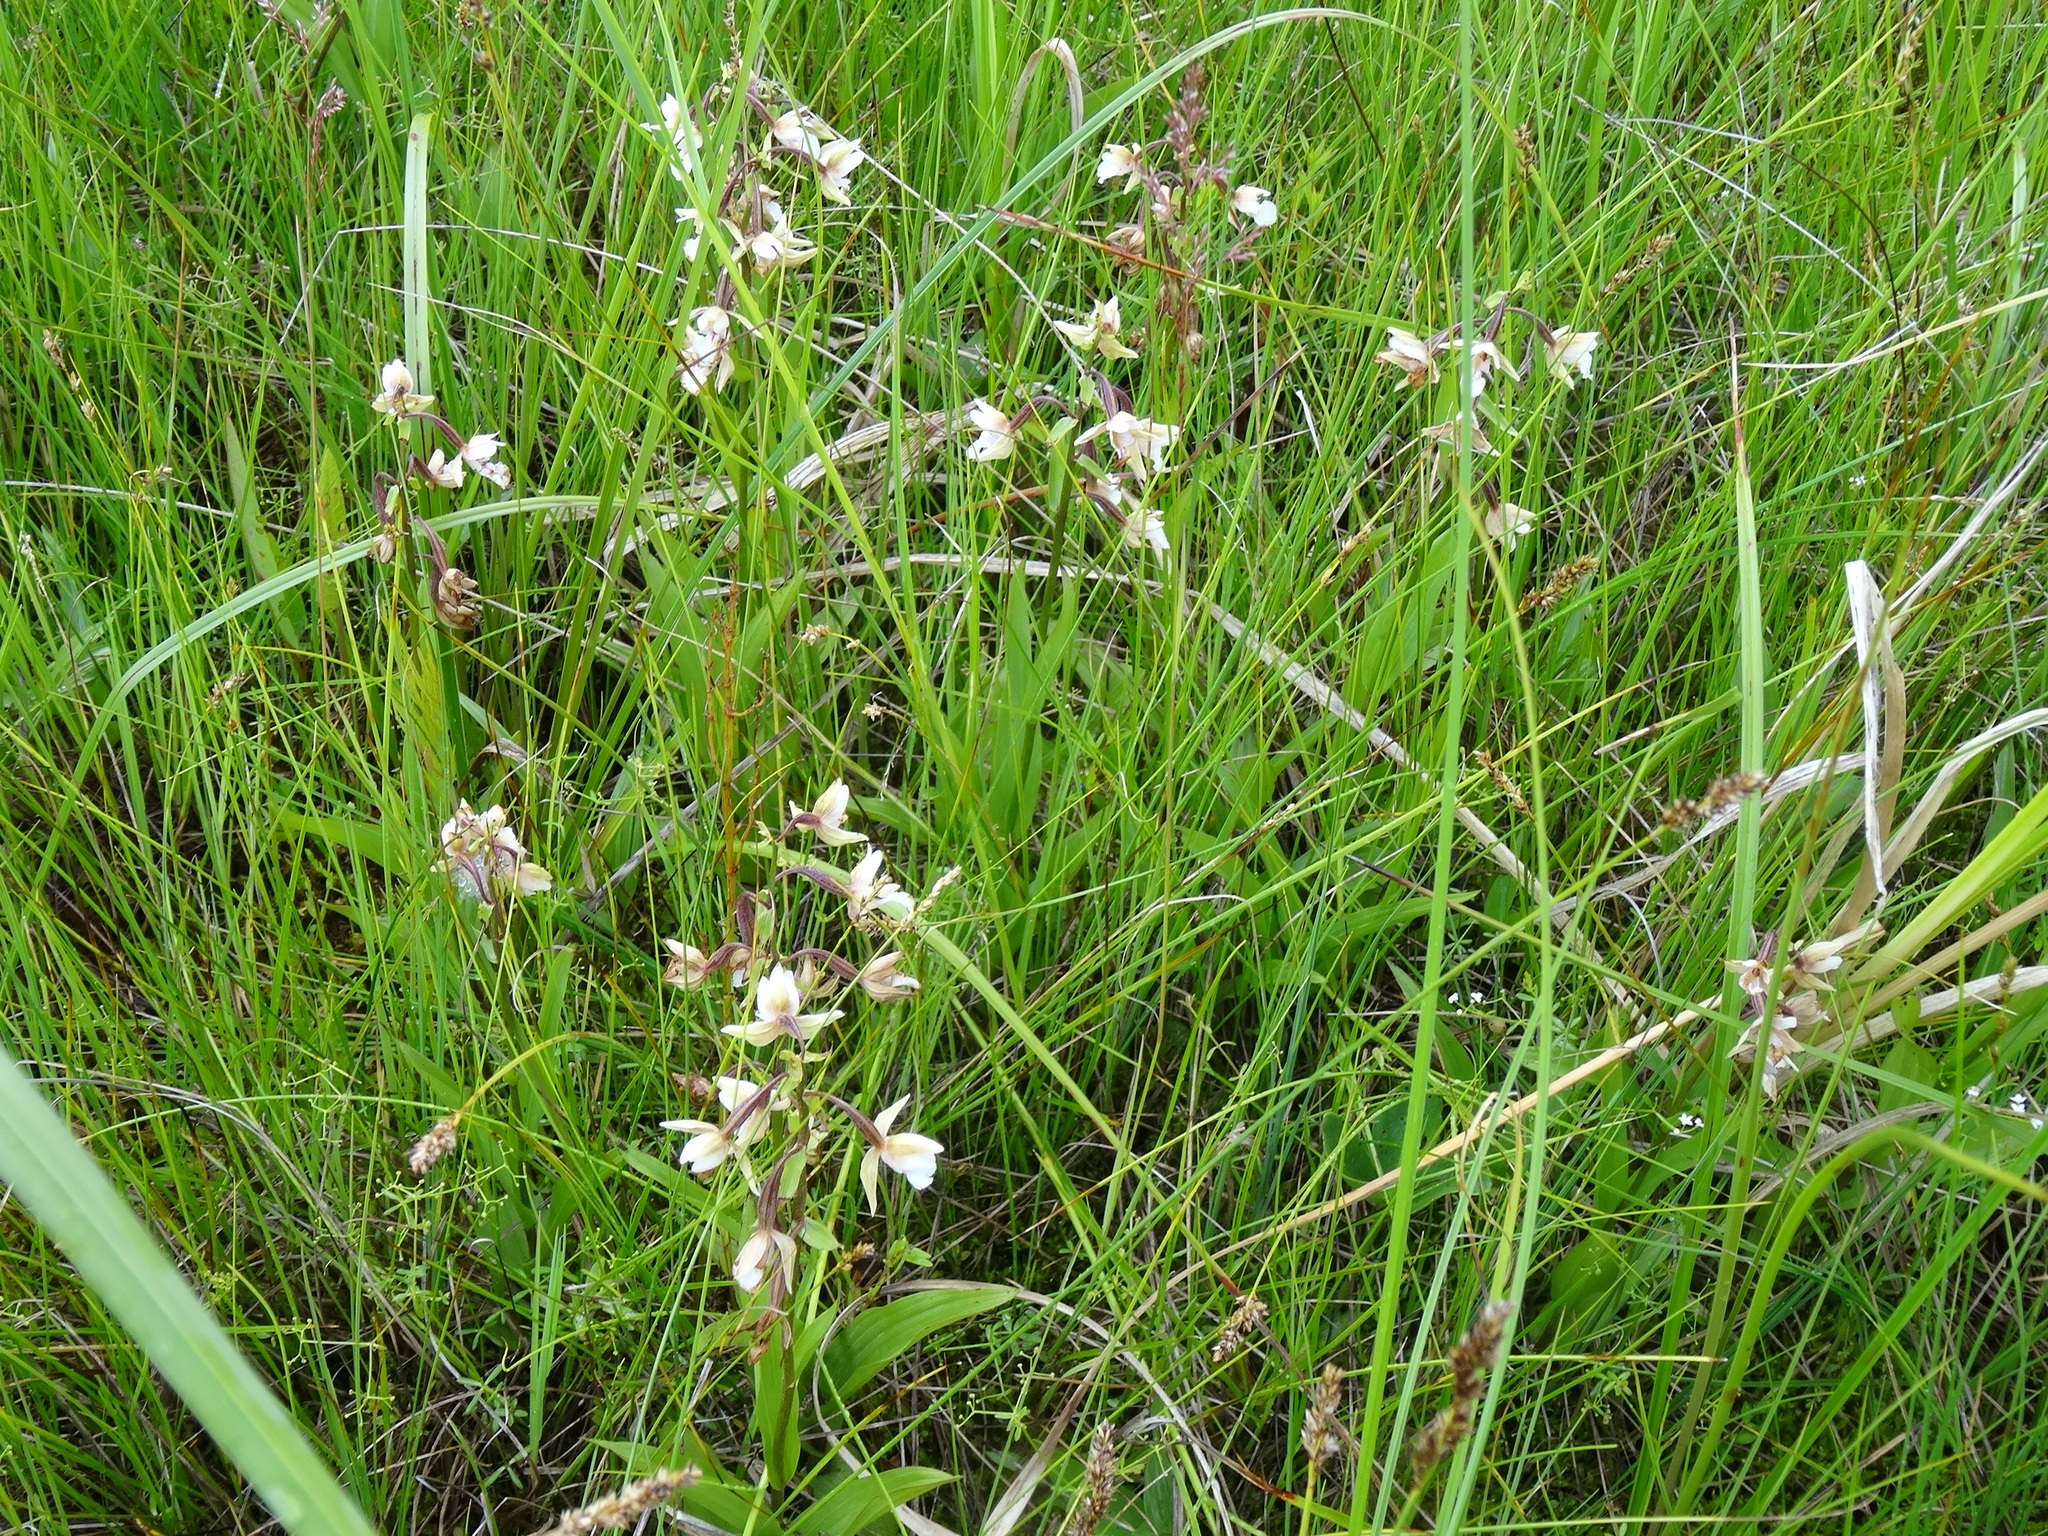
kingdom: Plantae
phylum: Tracheophyta
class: Liliopsida
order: Asparagales
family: Orchidaceae
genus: Epipactis
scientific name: Epipactis palustris
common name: Marsh helleborine
